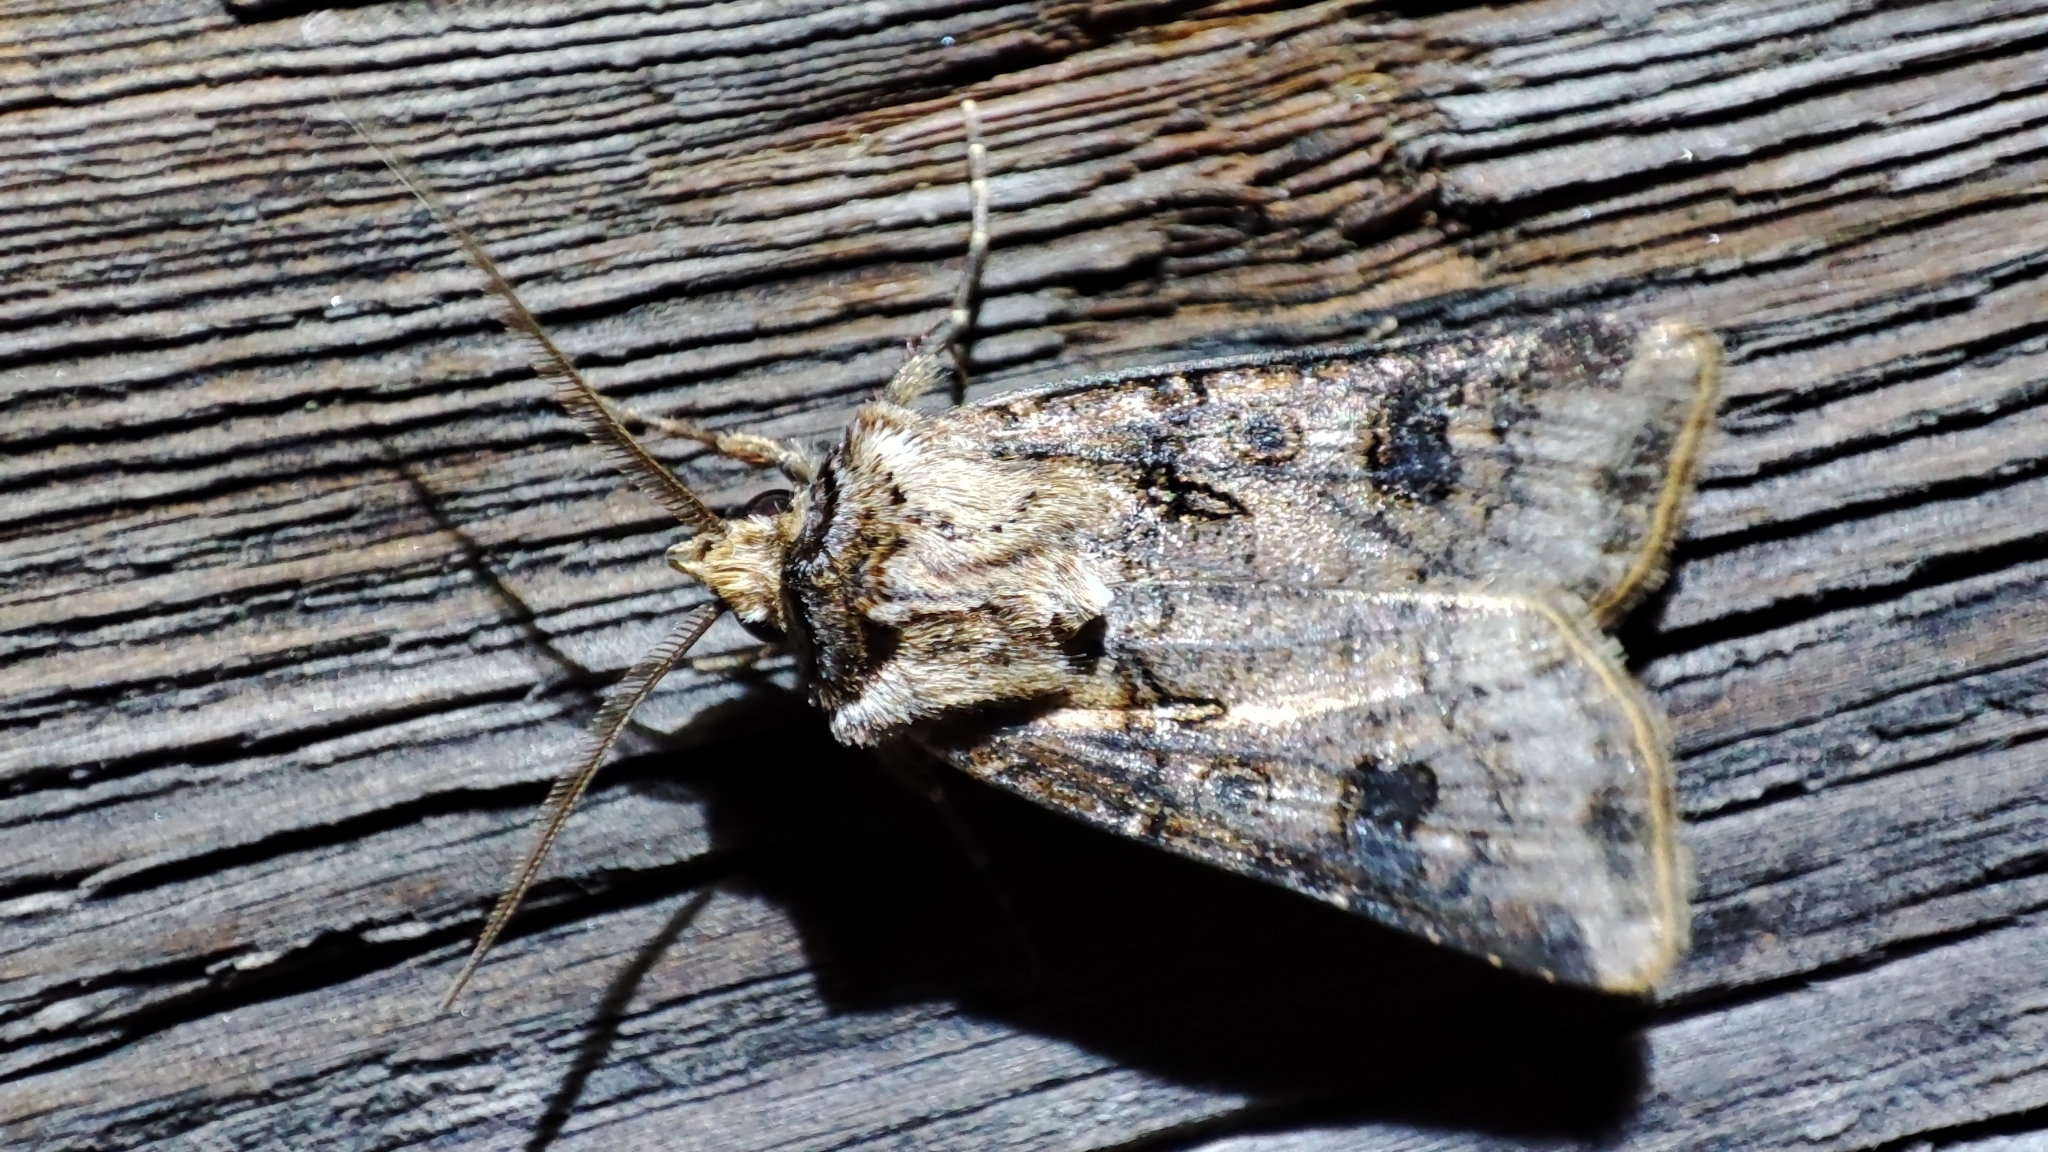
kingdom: Animalia
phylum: Arthropoda
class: Insecta
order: Lepidoptera
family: Noctuidae
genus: Agrotis
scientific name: Agrotis clavis
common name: Heart and club
